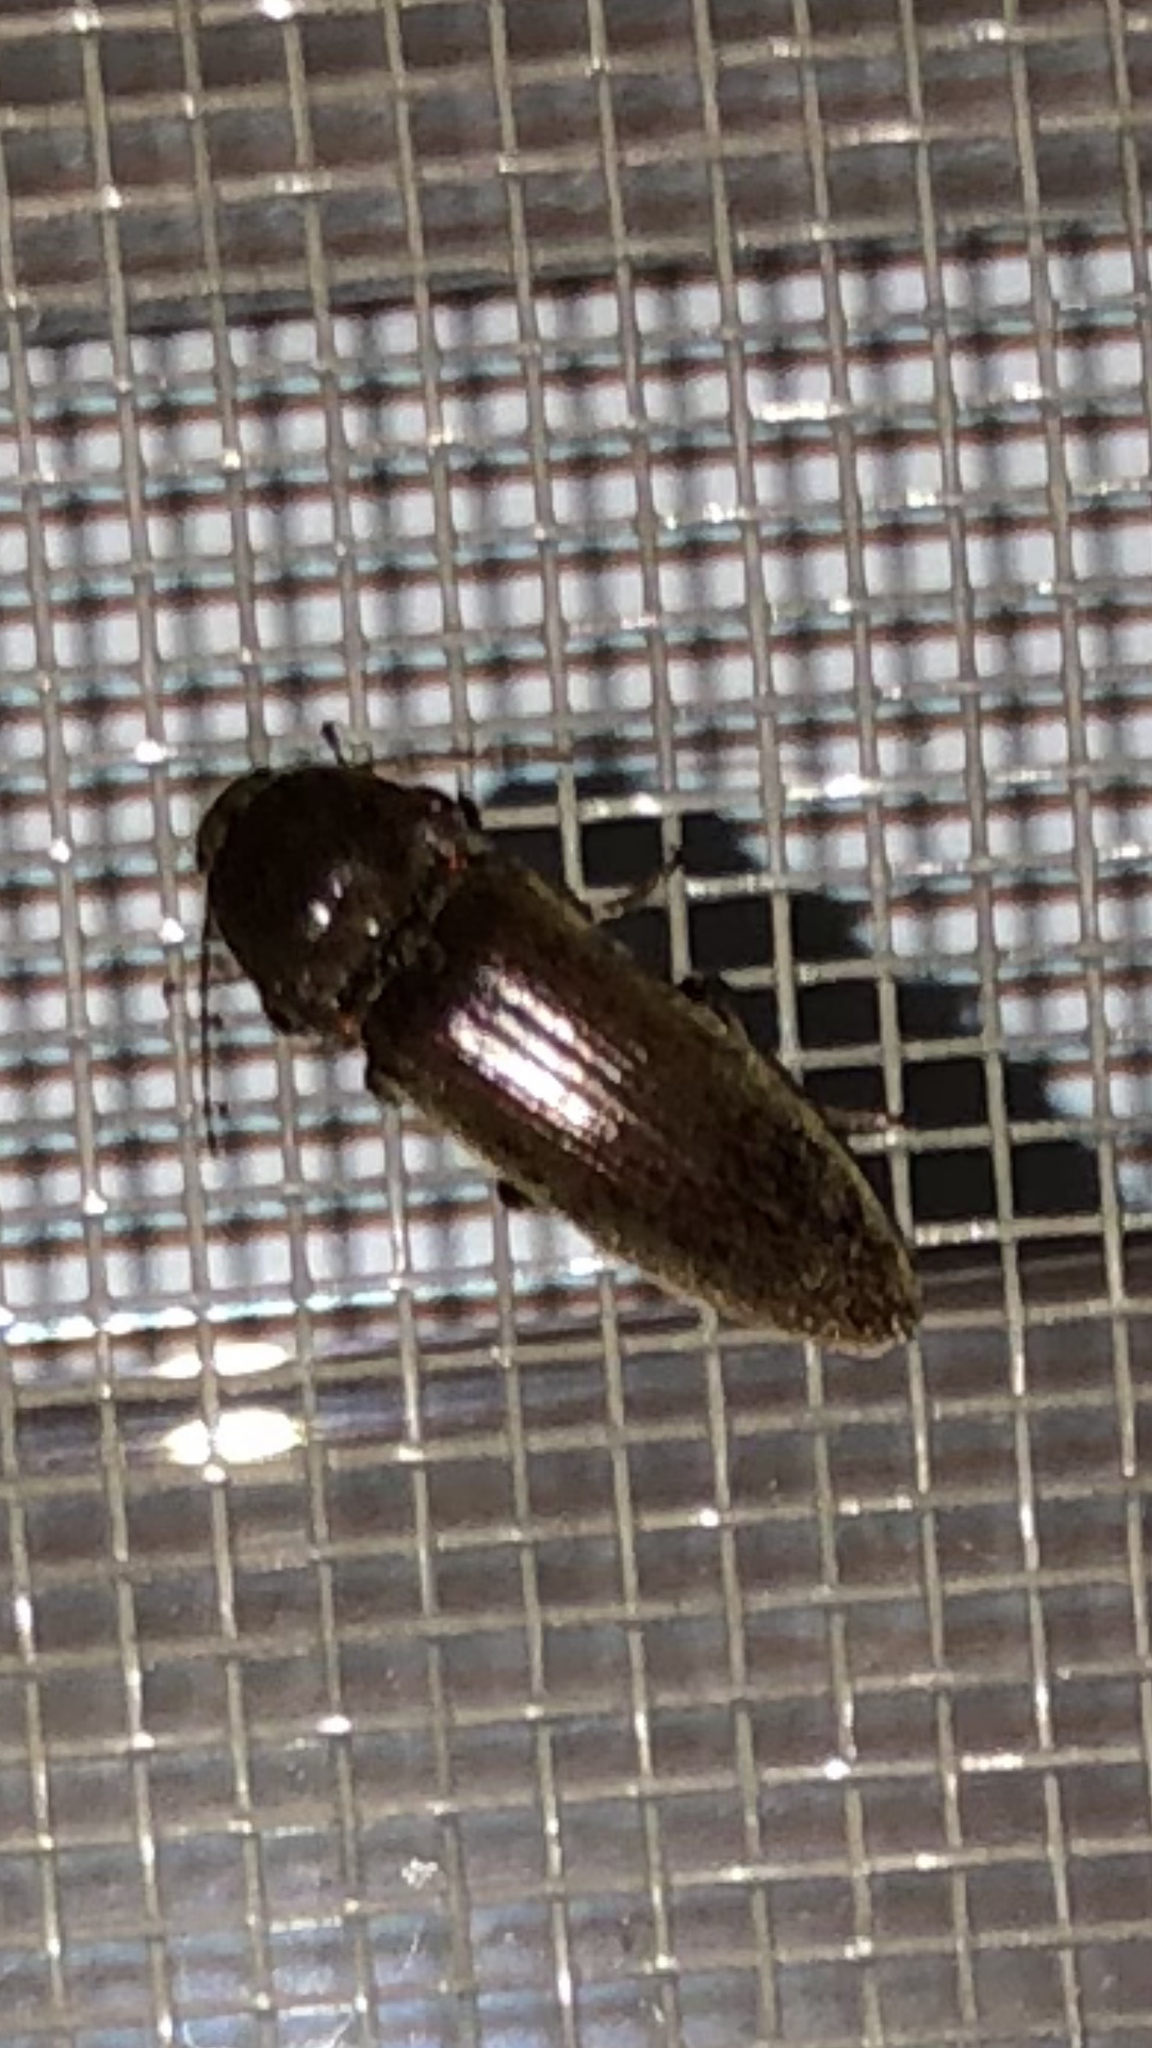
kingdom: Animalia
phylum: Arthropoda
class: Insecta
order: Coleoptera
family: Elateridae
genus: Melanotus
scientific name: Melanotus
